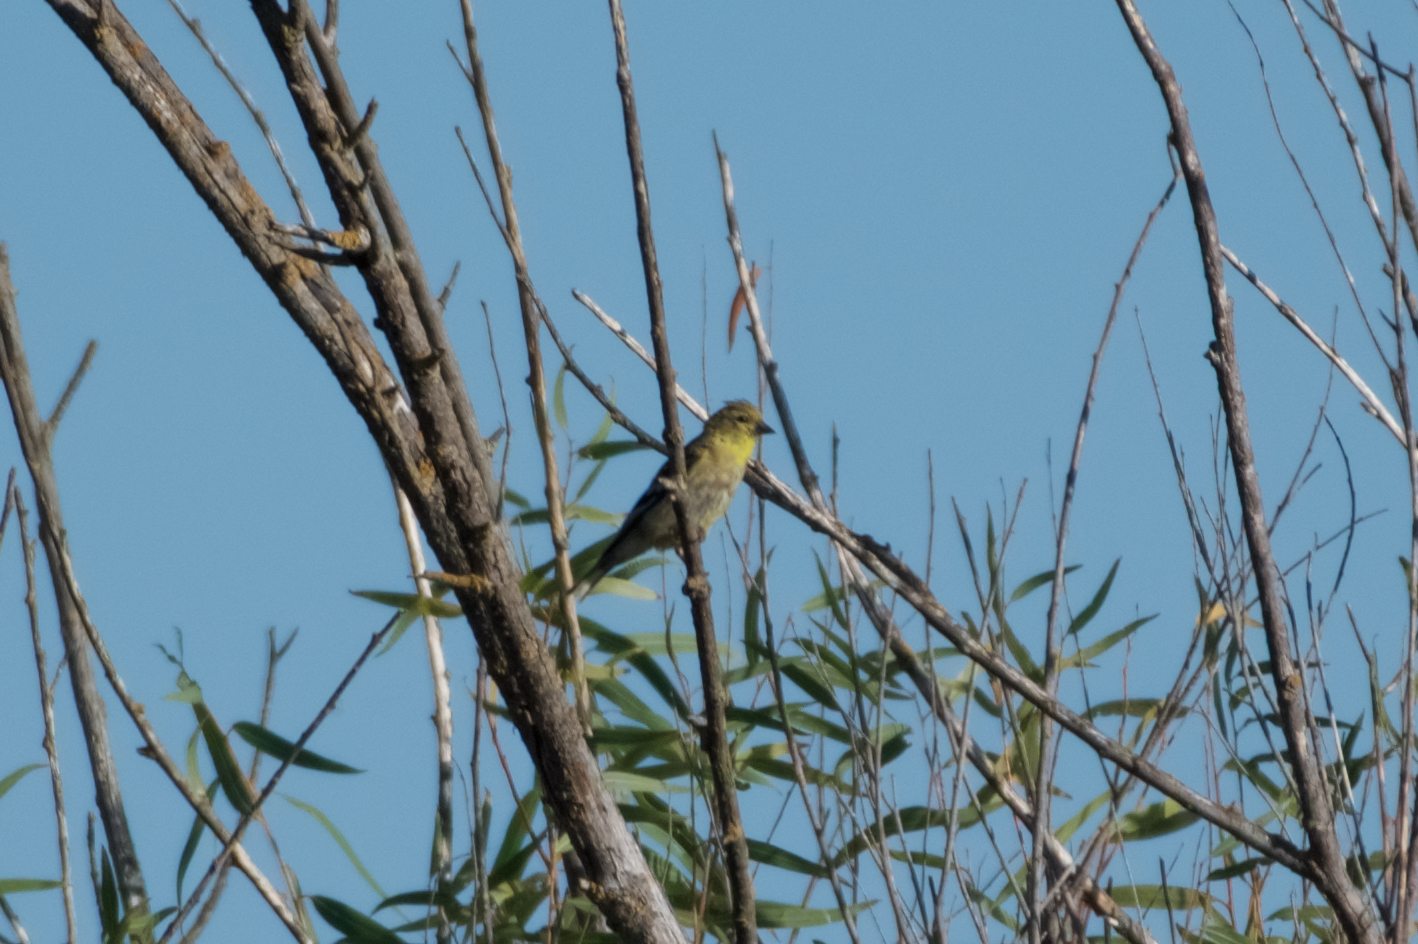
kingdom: Animalia
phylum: Chordata
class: Aves
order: Passeriformes
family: Fringillidae
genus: Spinus
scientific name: Spinus tristis
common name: American goldfinch
